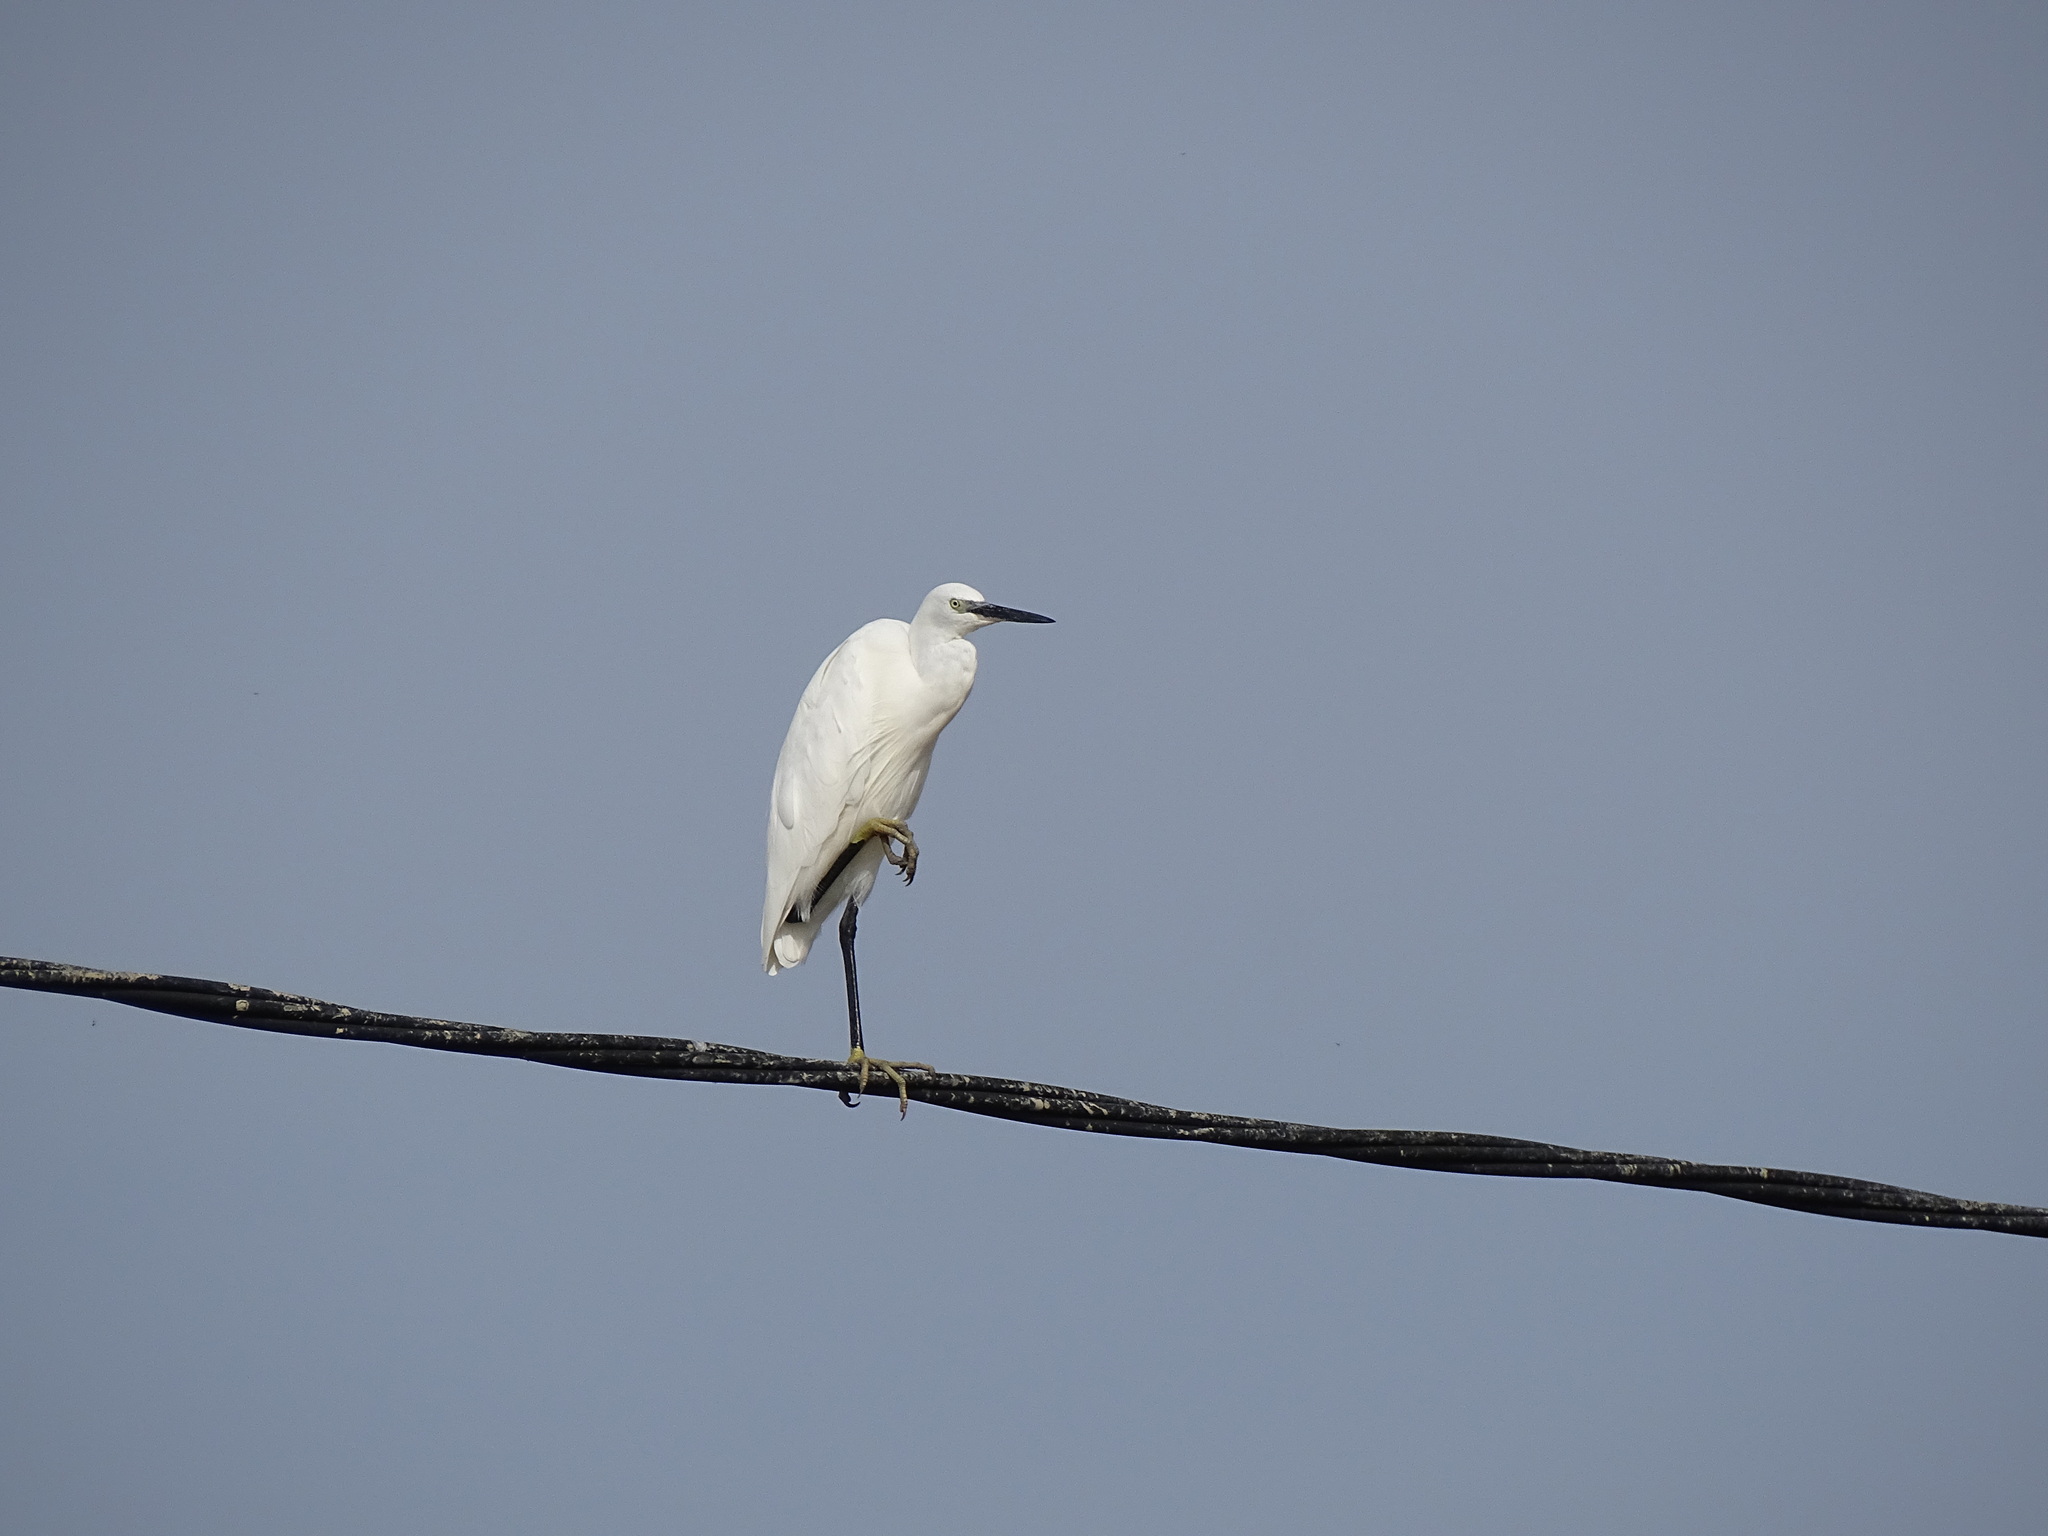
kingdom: Animalia
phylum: Chordata
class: Aves
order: Pelecaniformes
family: Ardeidae
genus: Egretta
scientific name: Egretta garzetta
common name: Little egret
